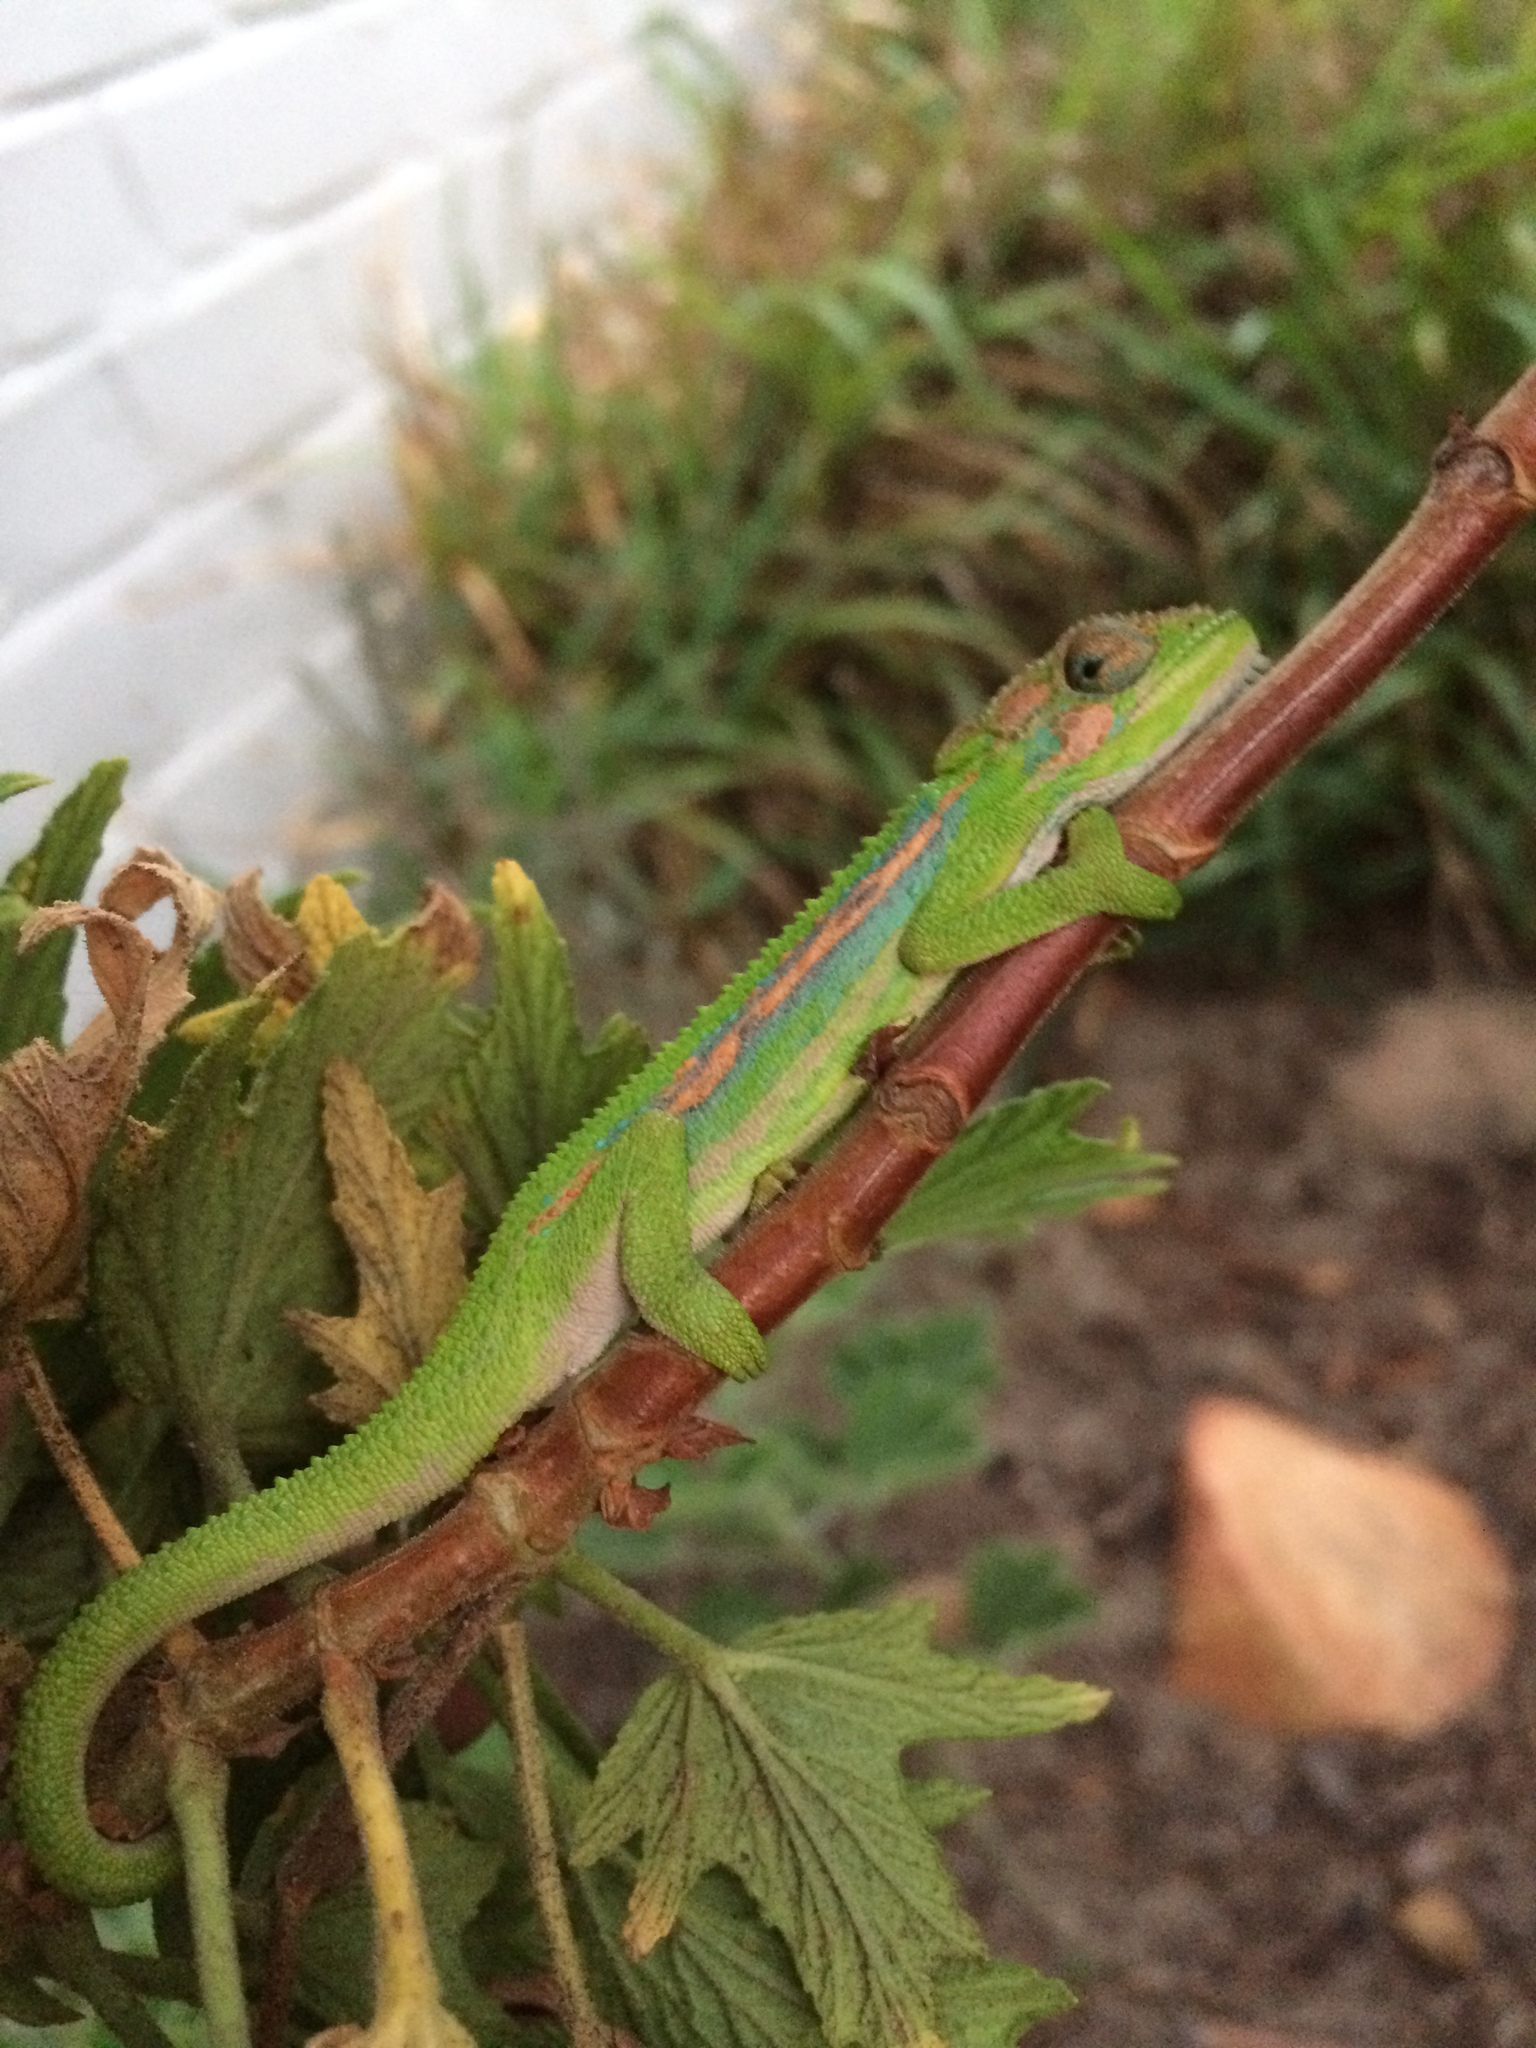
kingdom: Animalia
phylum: Chordata
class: Squamata
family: Chamaeleonidae
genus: Bradypodion
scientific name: Bradypodion pumilum
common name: Cape dwarf chameleon
